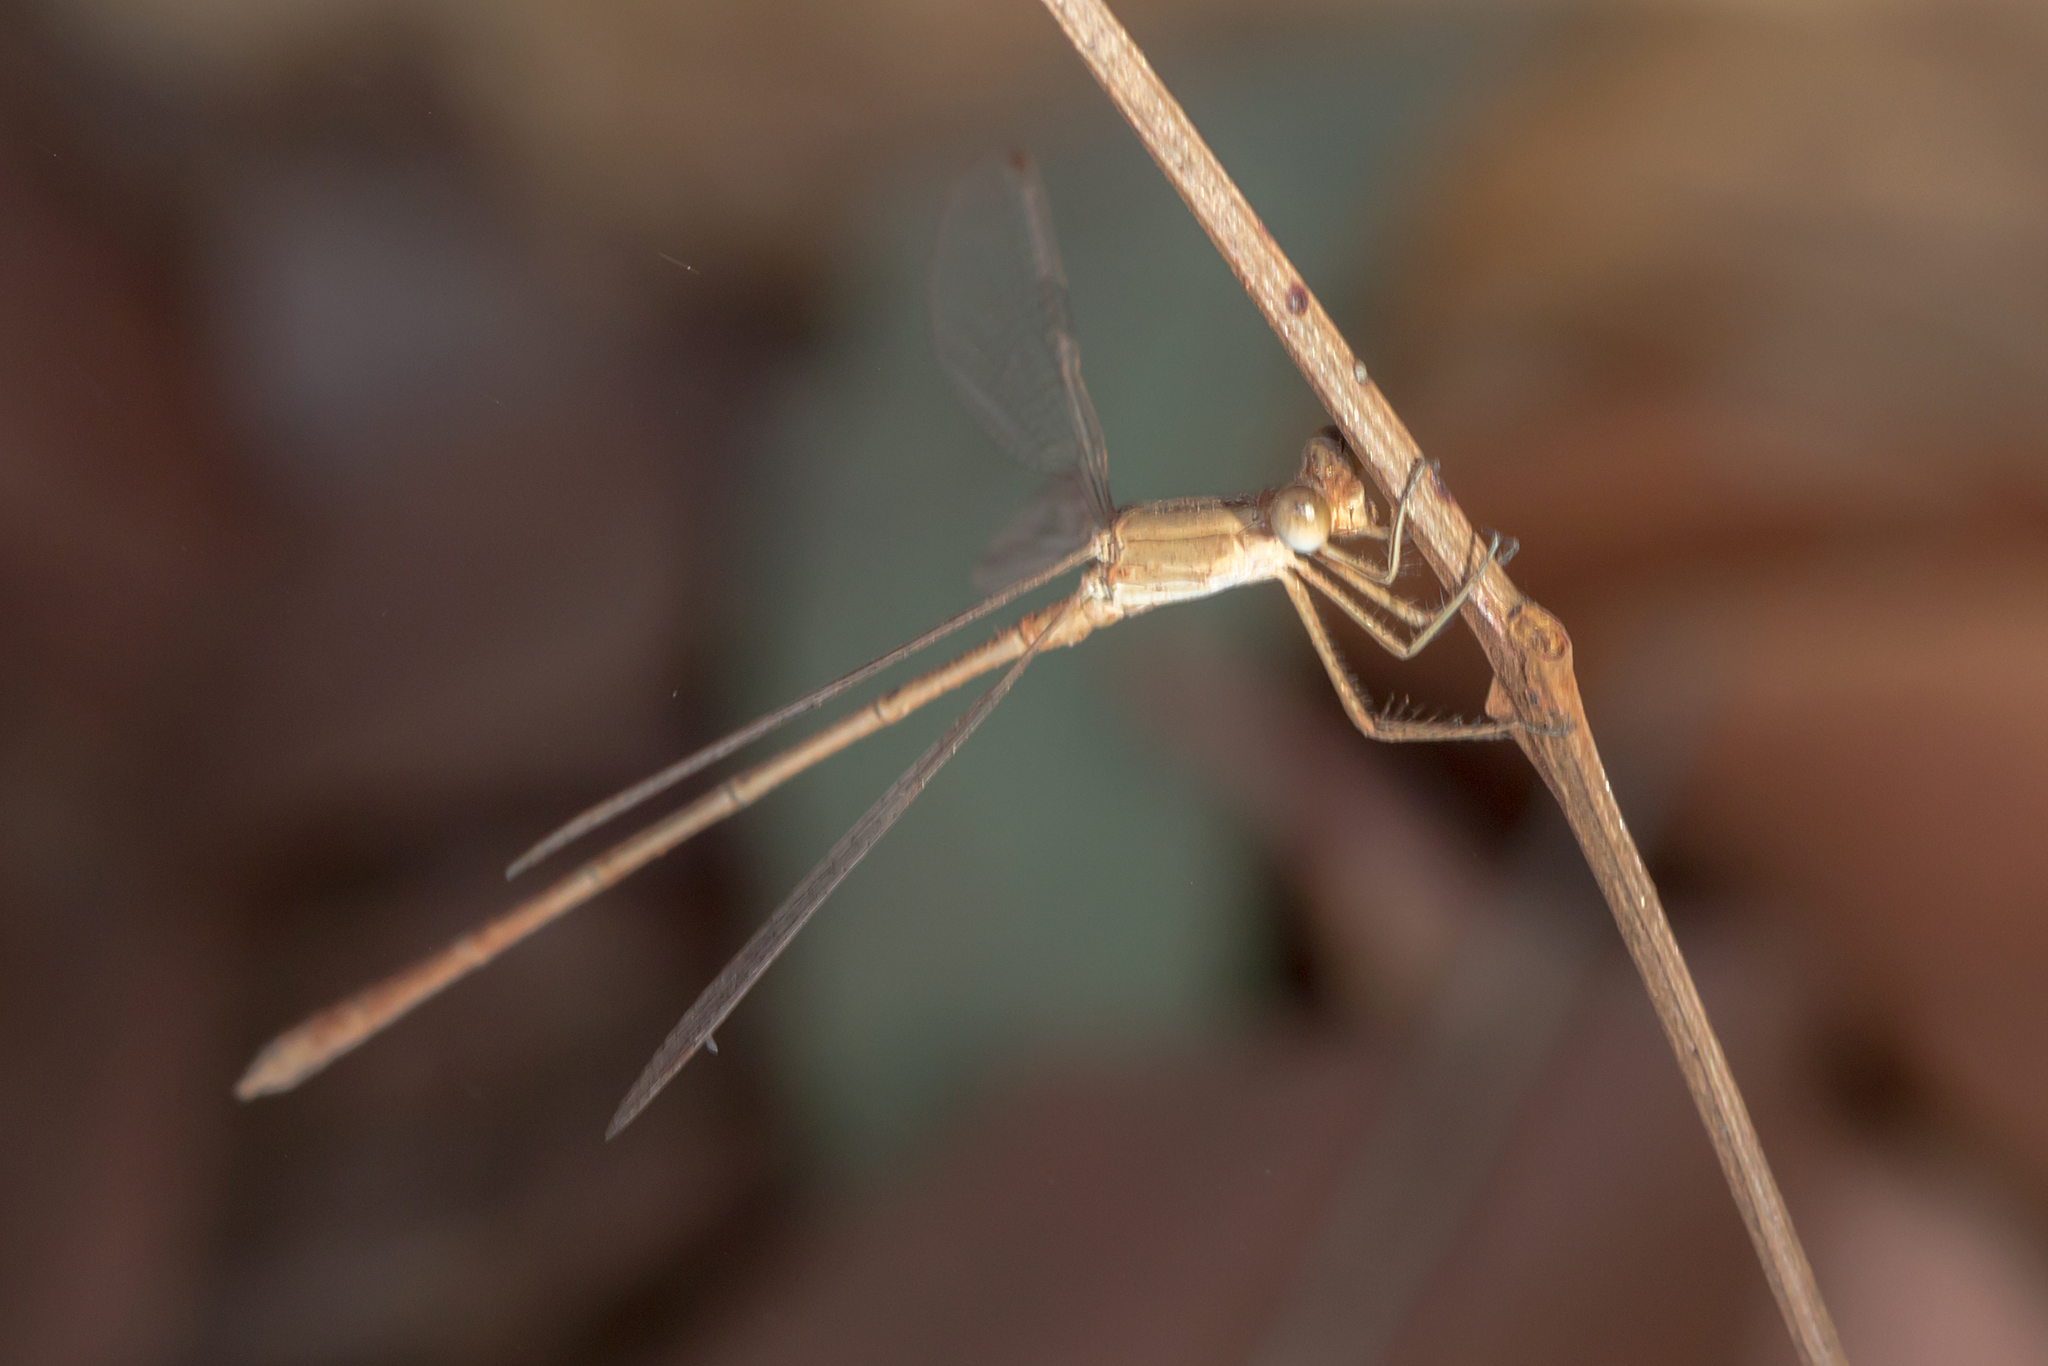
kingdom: Animalia
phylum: Arthropoda
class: Insecta
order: Odonata
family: Lestidae
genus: Lestes
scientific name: Lestes concinnus
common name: Dusky spreadwing
